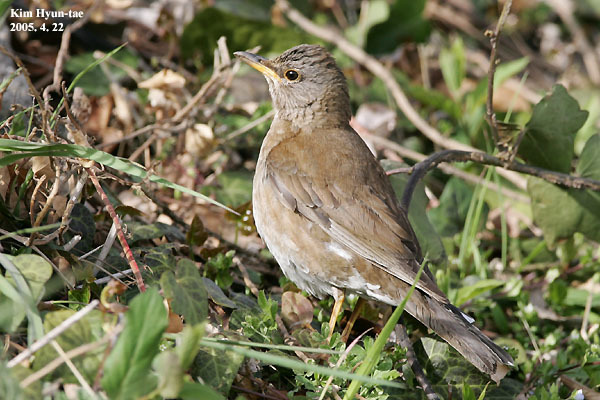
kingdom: Animalia
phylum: Chordata
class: Aves
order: Passeriformes
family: Turdidae
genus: Turdus
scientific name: Turdus pallidus
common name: Pale thrush
